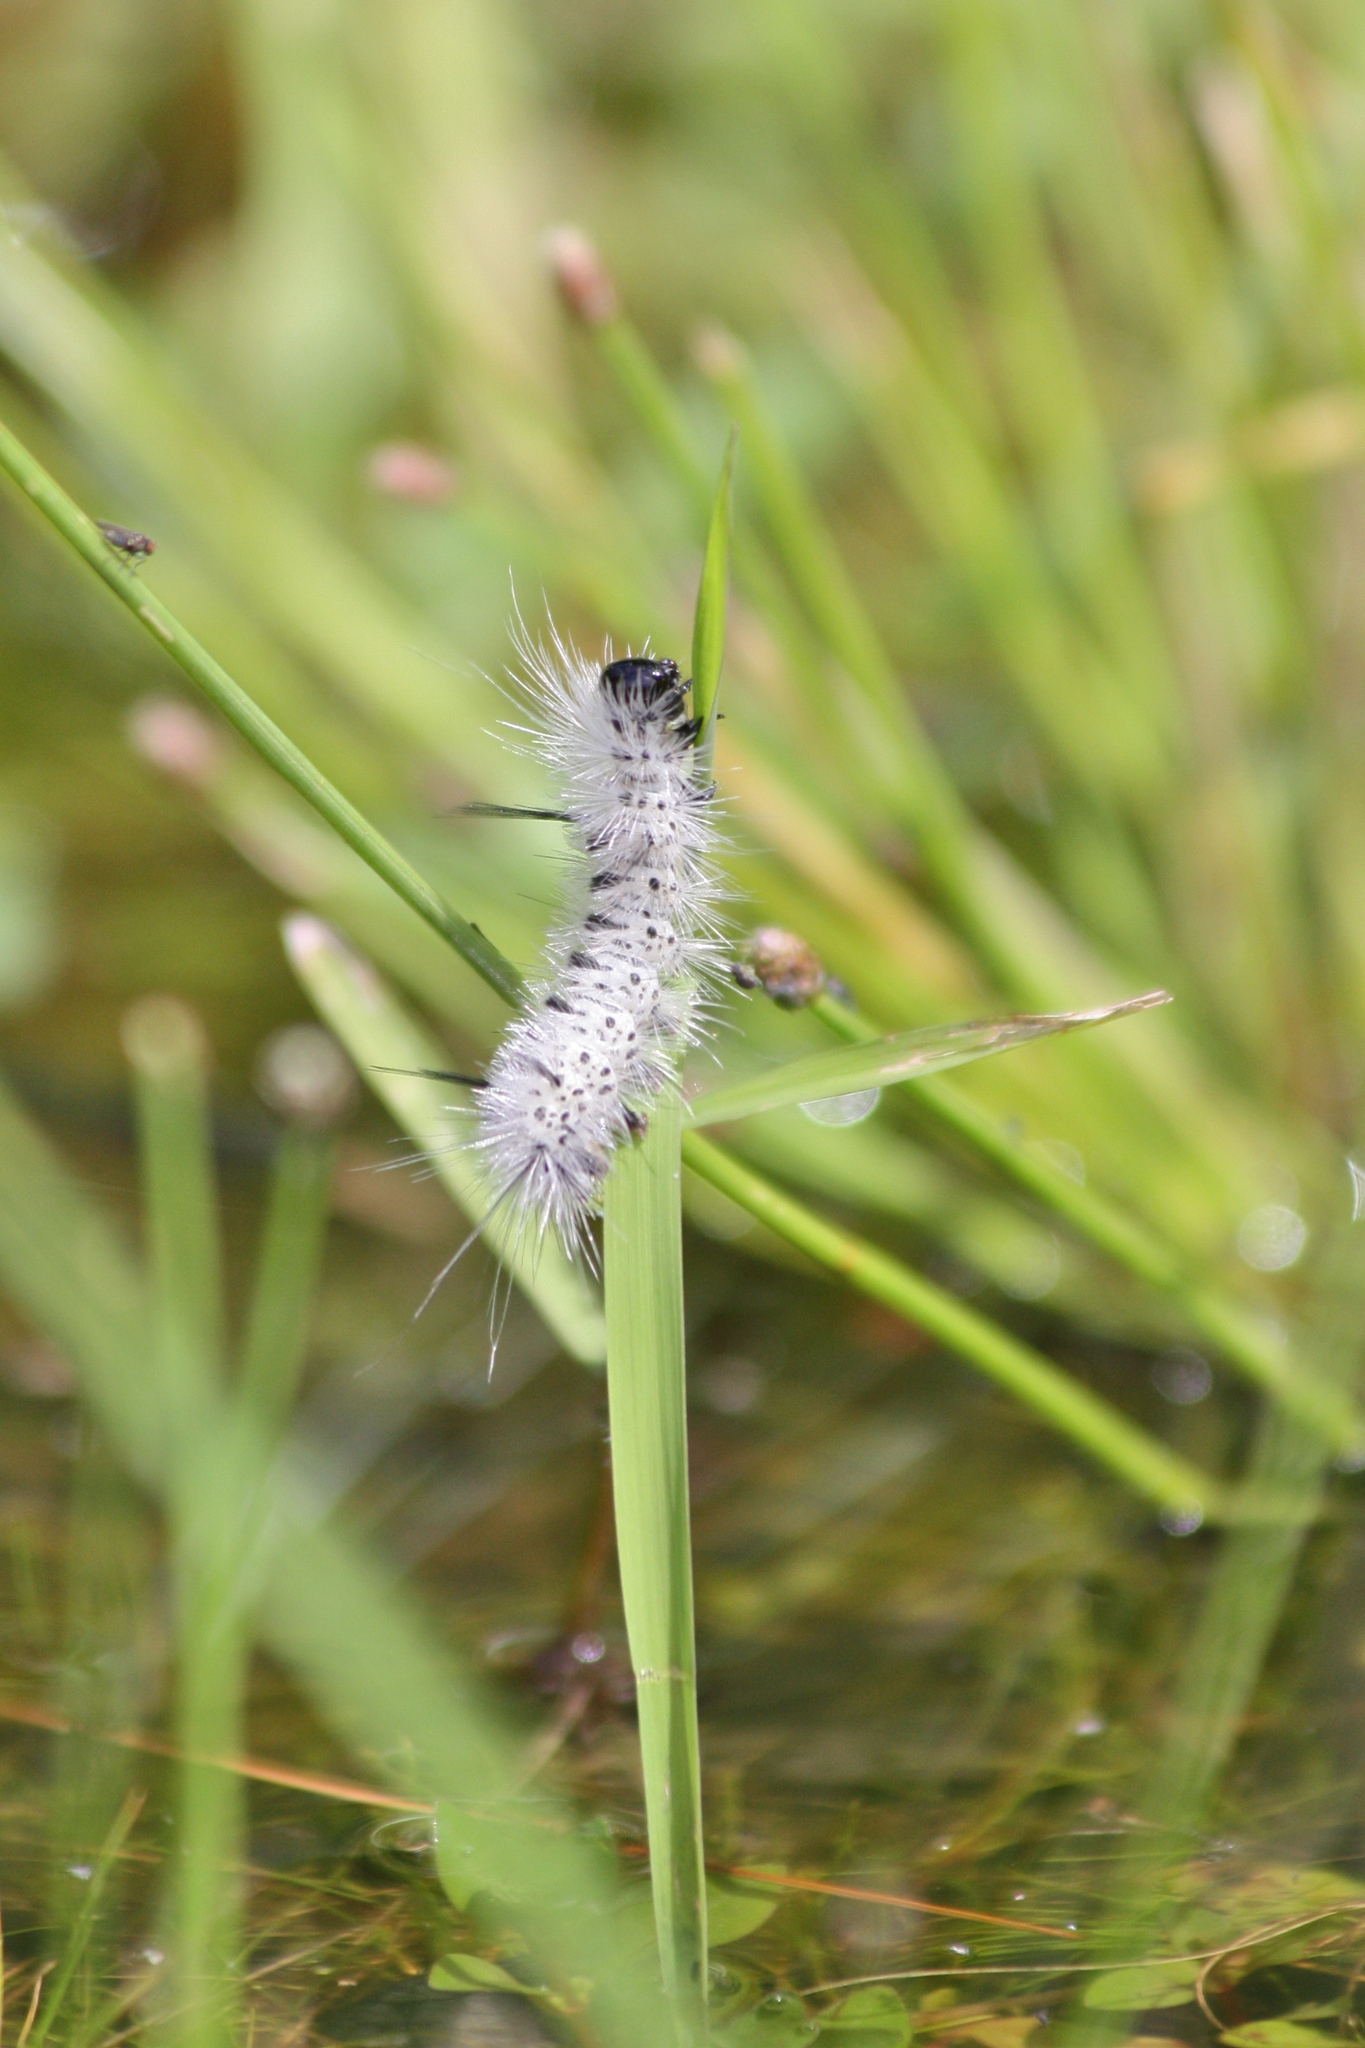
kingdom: Animalia
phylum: Arthropoda
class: Insecta
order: Lepidoptera
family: Erebidae
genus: Lophocampa
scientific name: Lophocampa caryae
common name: Hickory tussock moth
